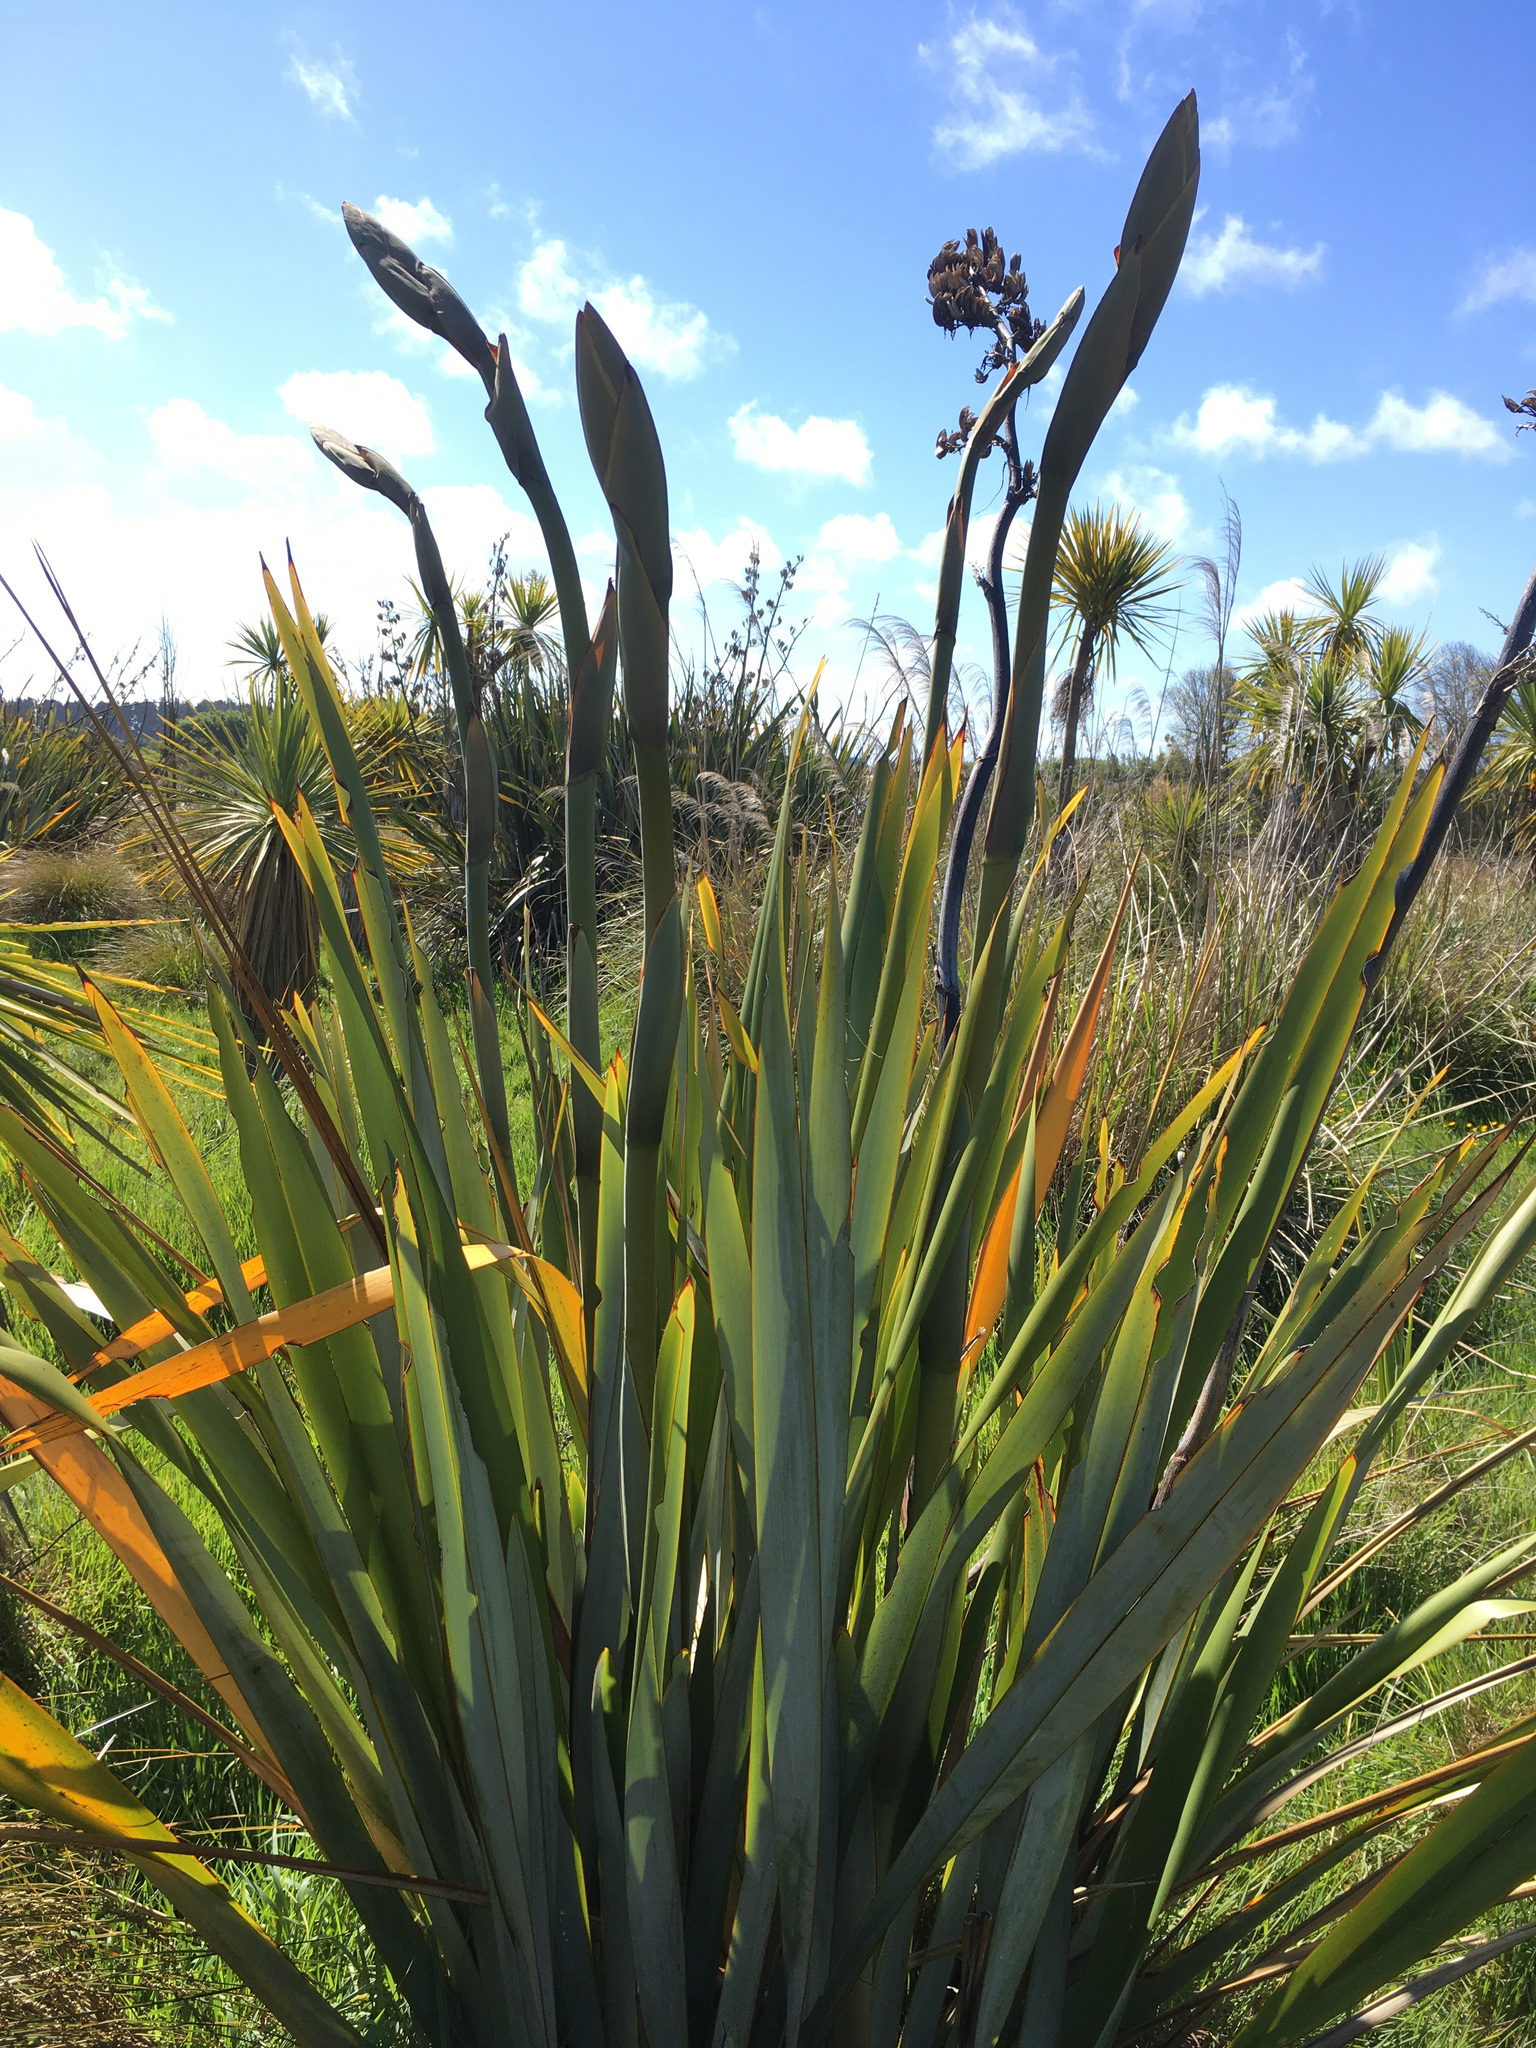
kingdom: Plantae
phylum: Tracheophyta
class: Liliopsida
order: Asparagales
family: Asphodelaceae
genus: Phormium
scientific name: Phormium tenax
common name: New zealand flax
